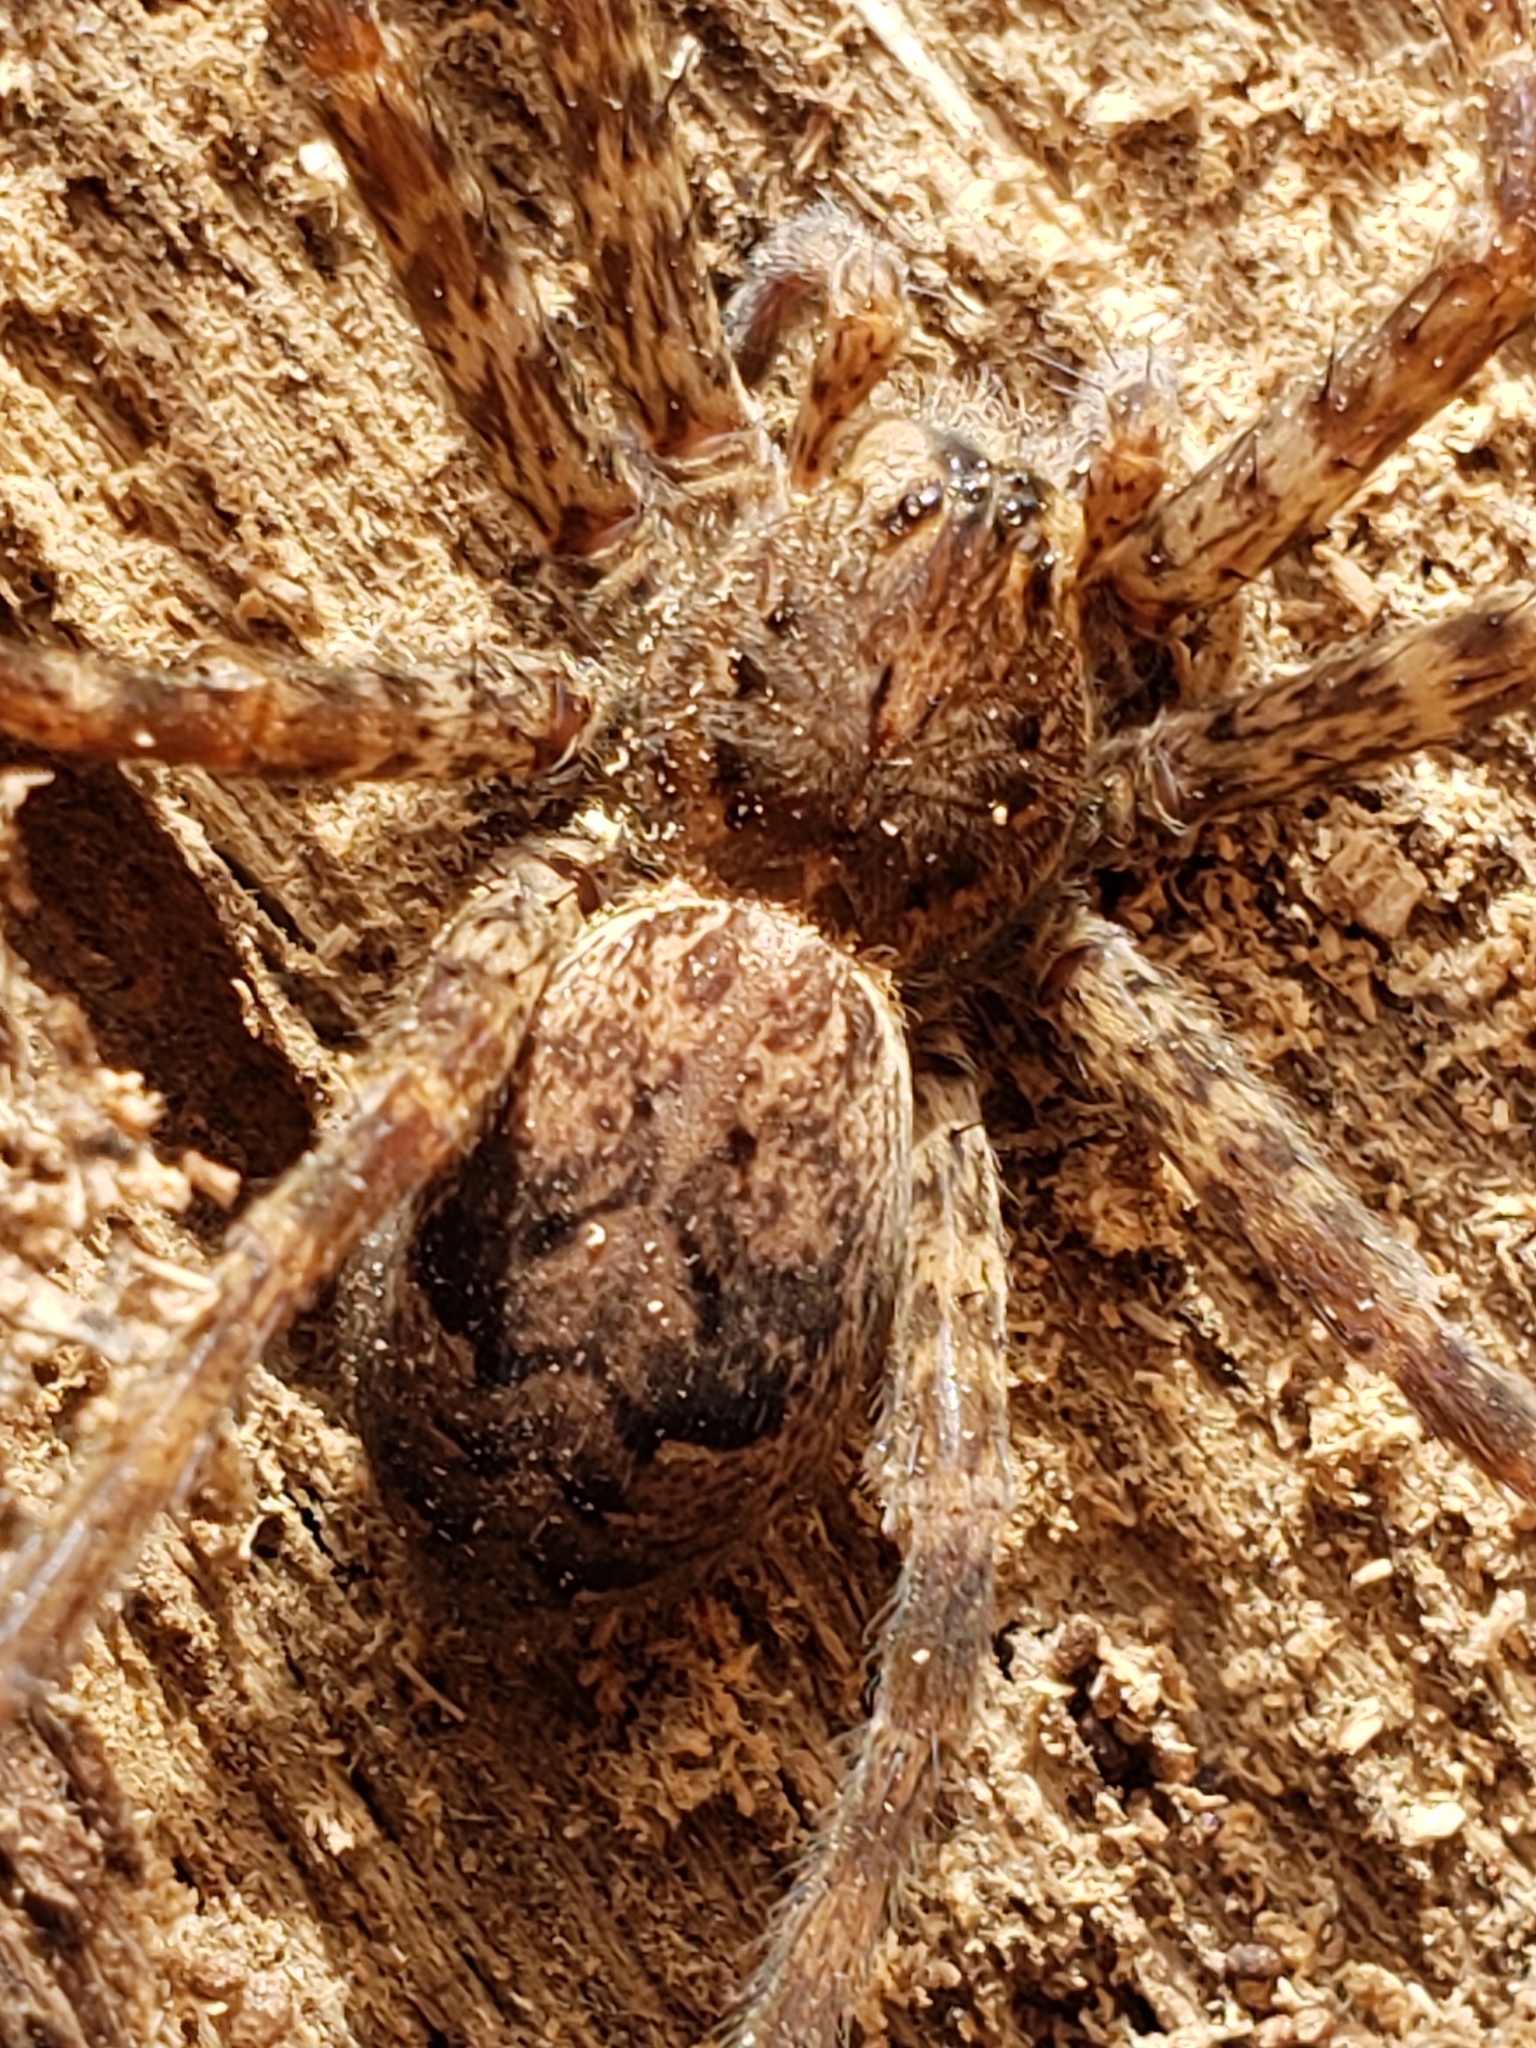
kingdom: Animalia
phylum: Arthropoda
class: Arachnida
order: Araneae
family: Pisauridae
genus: Dolomedes
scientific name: Dolomedes tenebrosus
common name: Dark fishing spider
